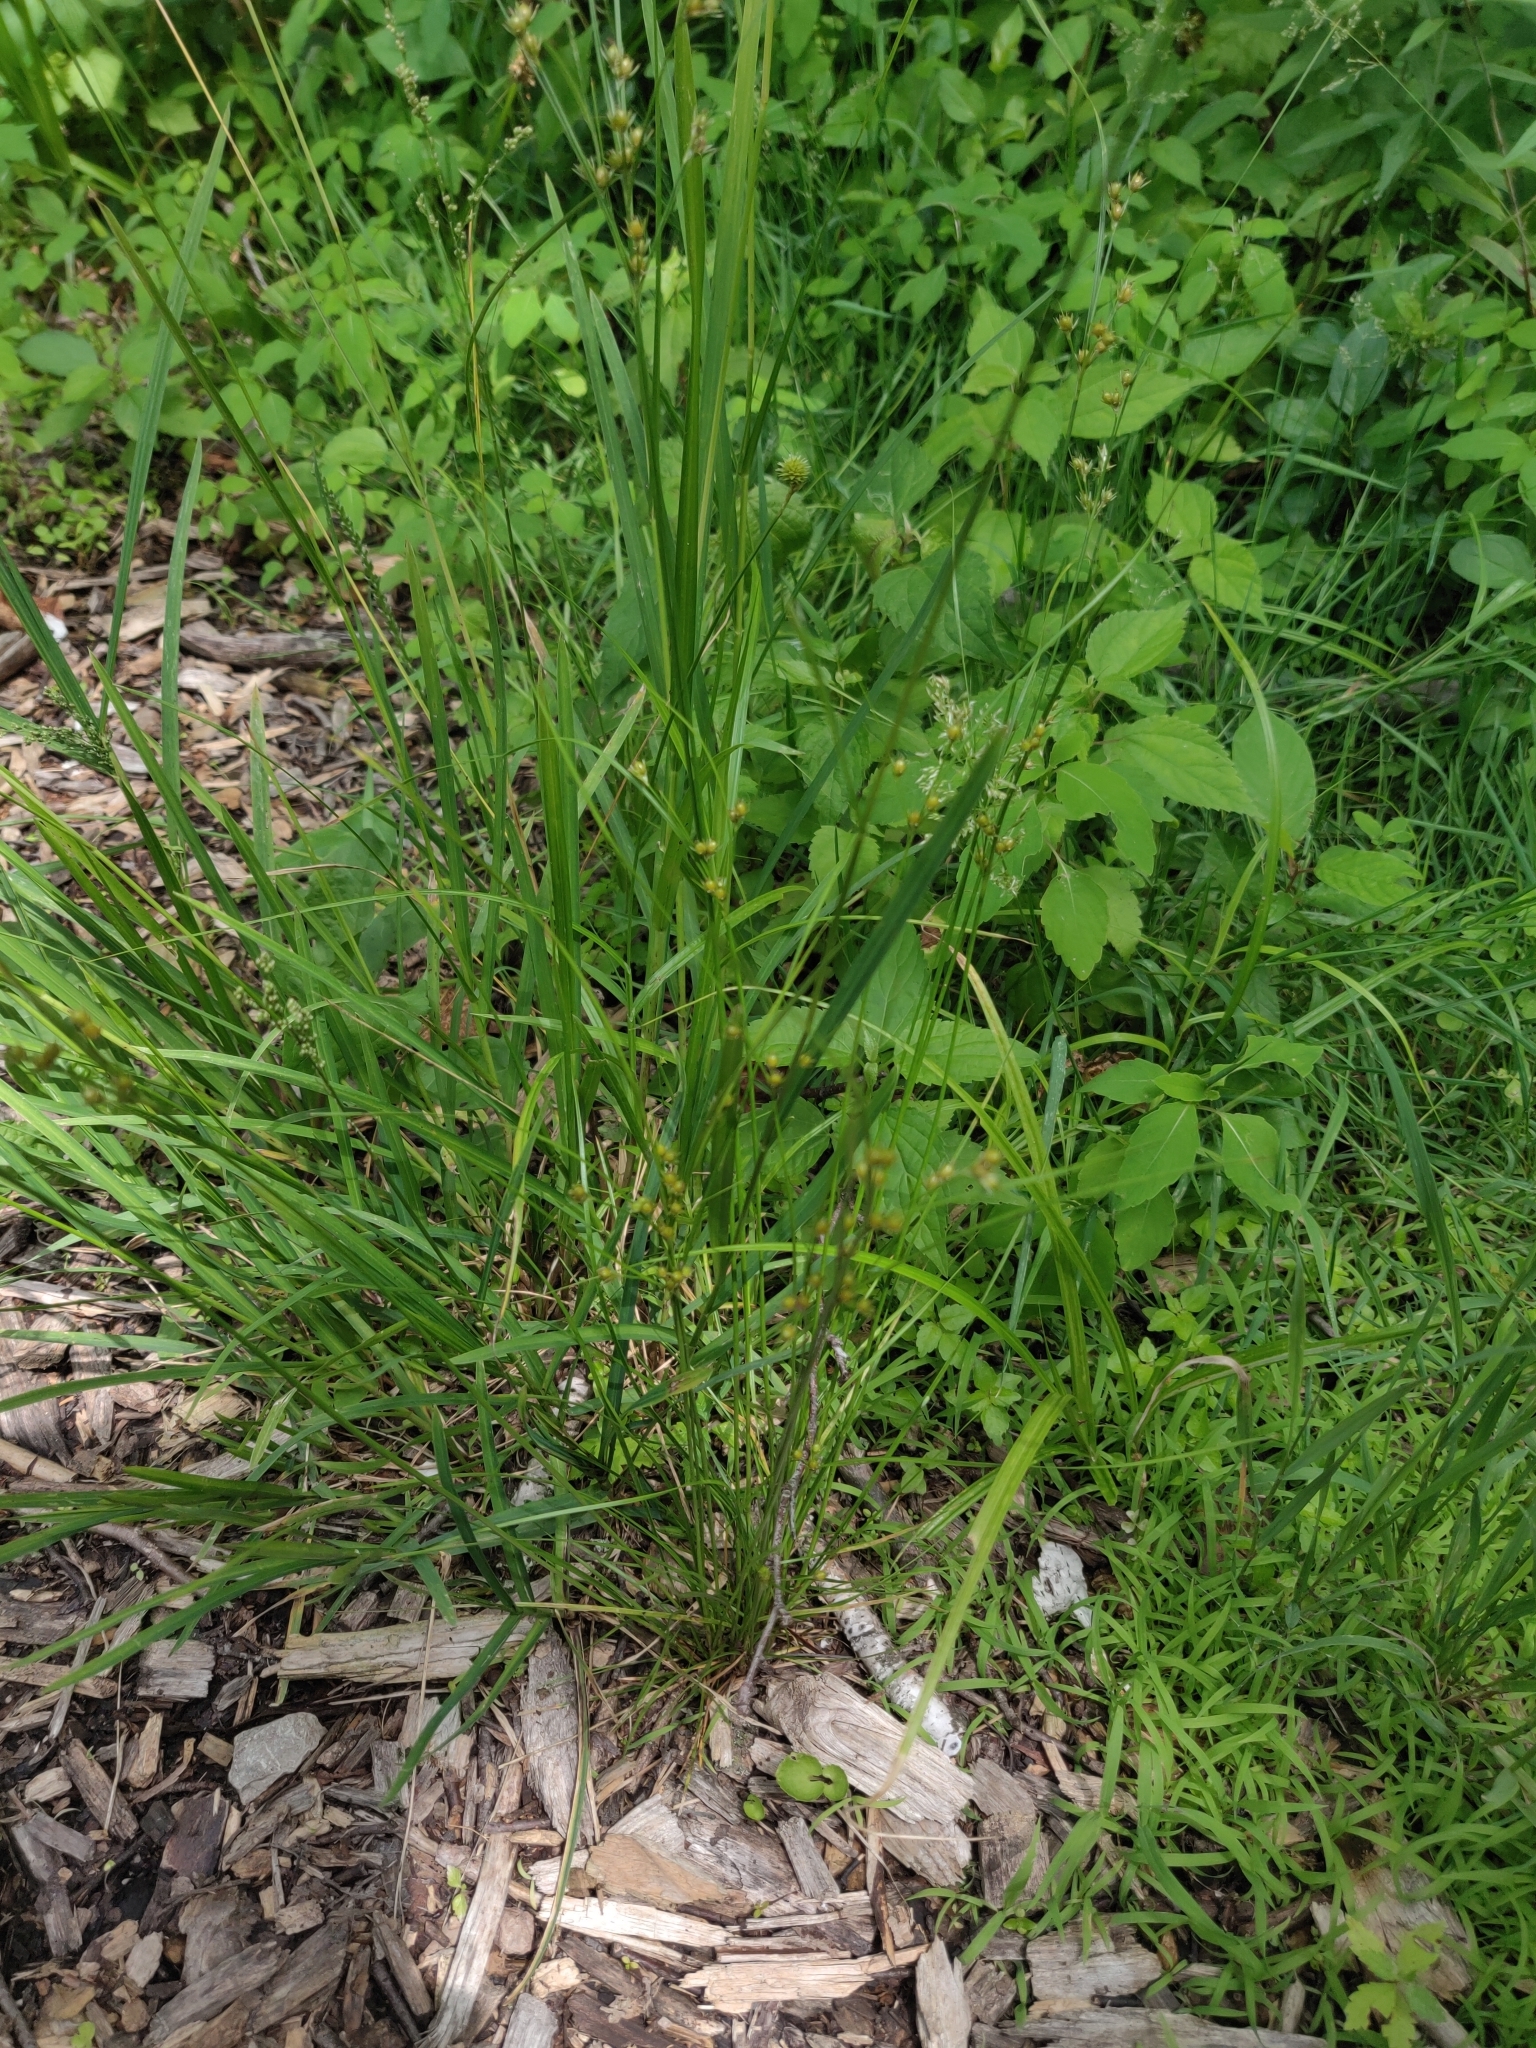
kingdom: Plantae
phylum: Tracheophyta
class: Liliopsida
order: Poales
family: Juncaceae
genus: Juncus
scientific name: Juncus tenuis
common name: Slender rush
